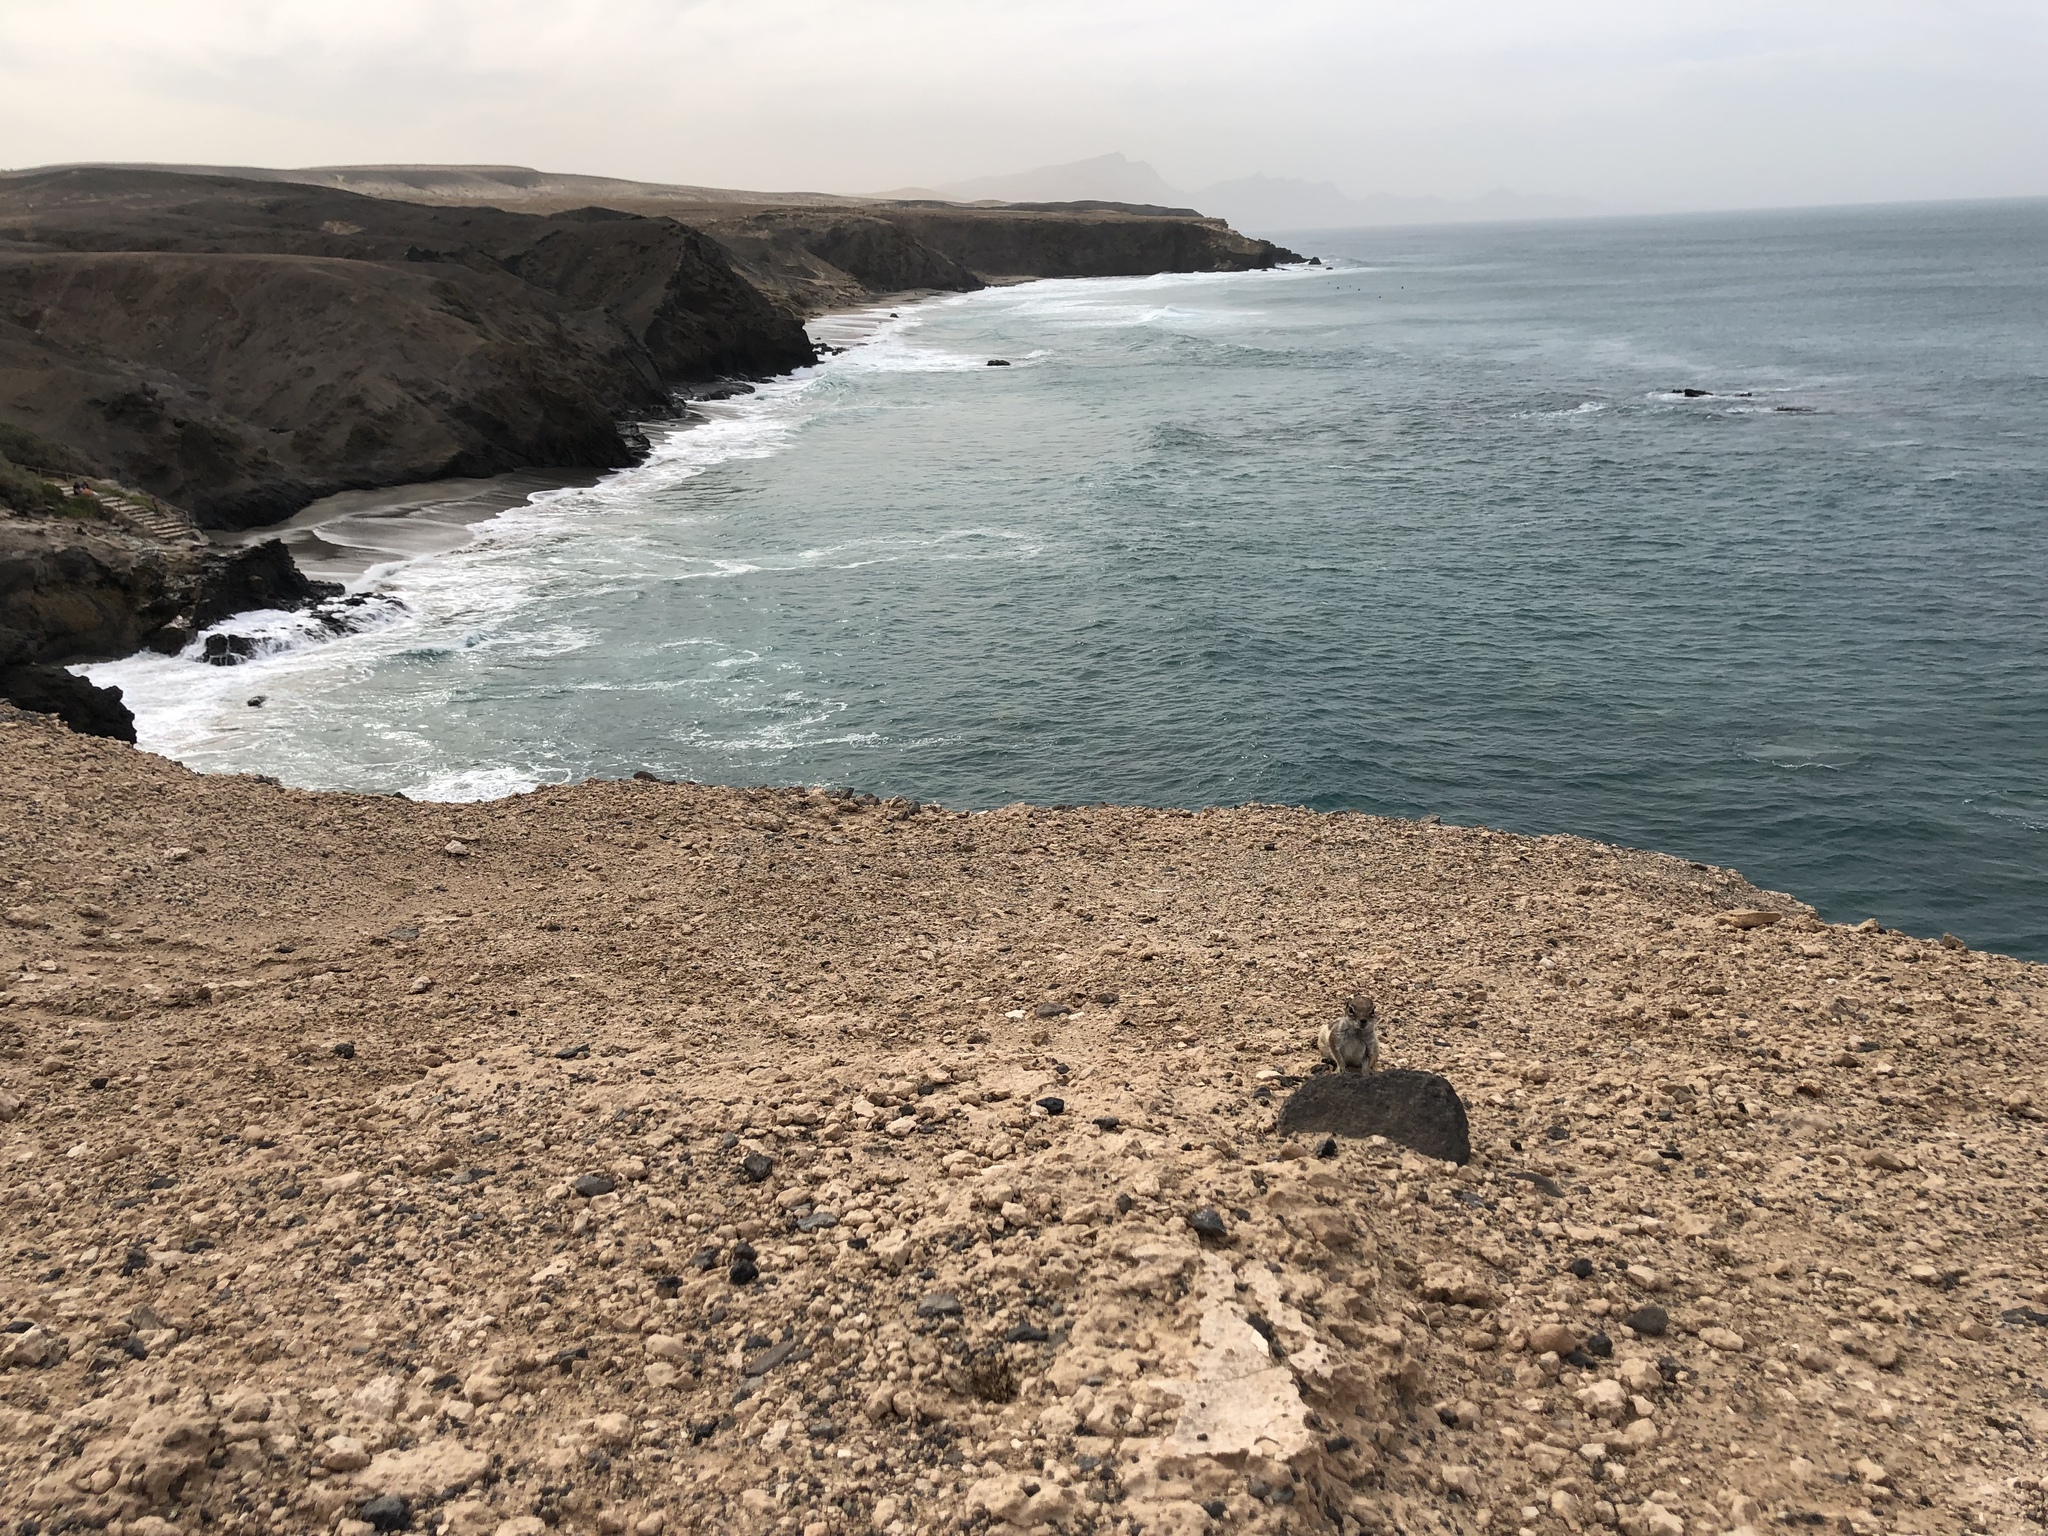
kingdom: Animalia
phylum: Chordata
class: Mammalia
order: Rodentia
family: Sciuridae
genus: Atlantoxerus
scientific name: Atlantoxerus getulus
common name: Barbary ground squirrel
